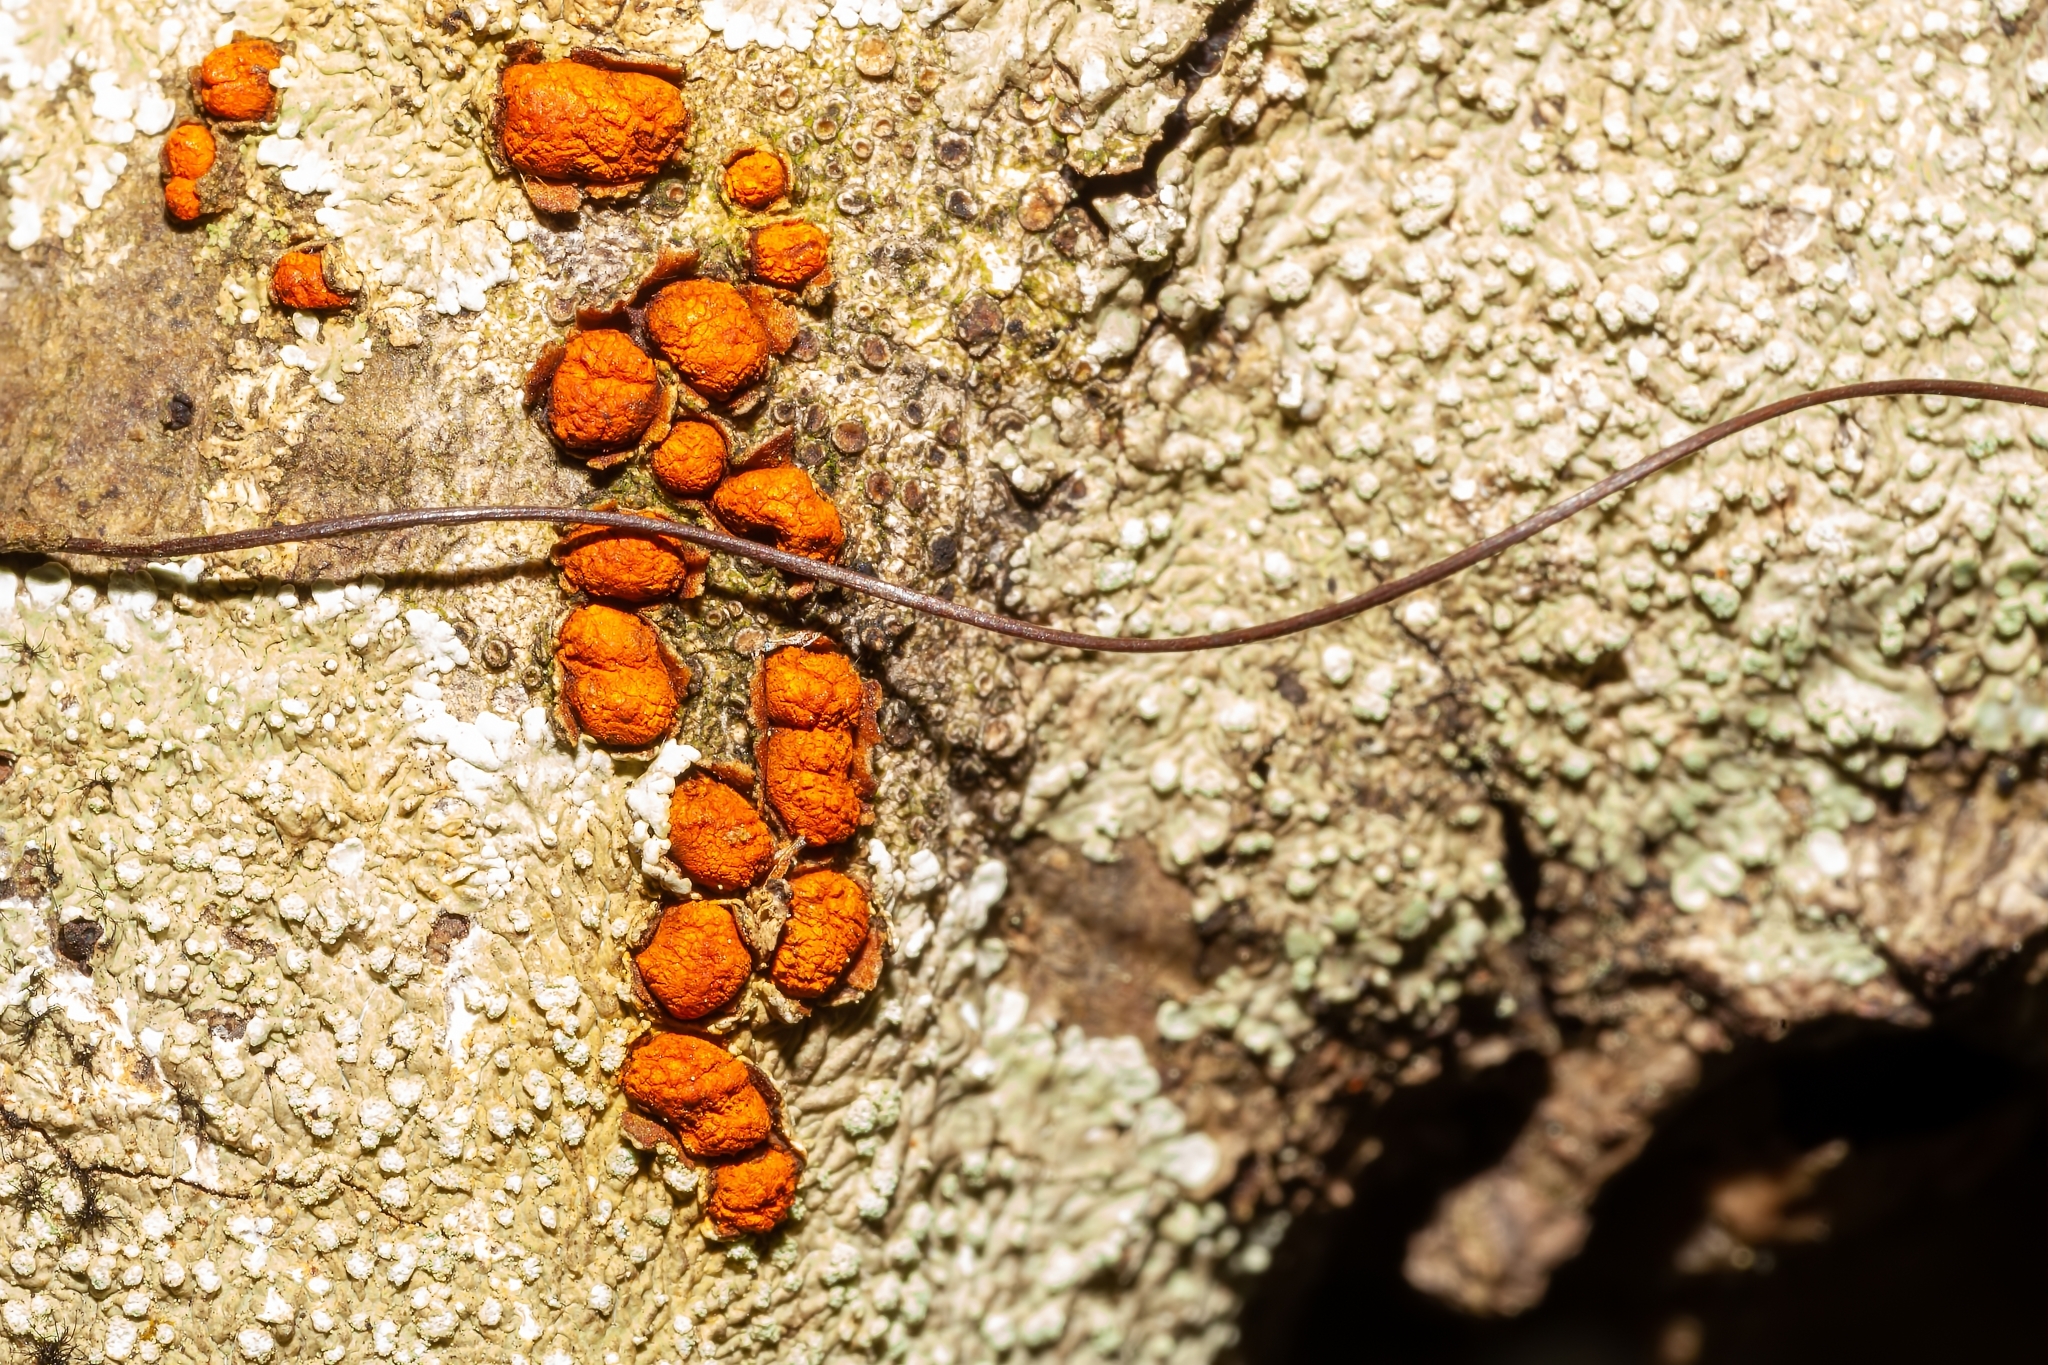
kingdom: Fungi
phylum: Ascomycota
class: Sordariomycetes
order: Diaporthales
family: Cryphonectriaceae
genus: Amphilogia
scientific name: Amphilogia gyrosa
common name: Orange hobnail canker
